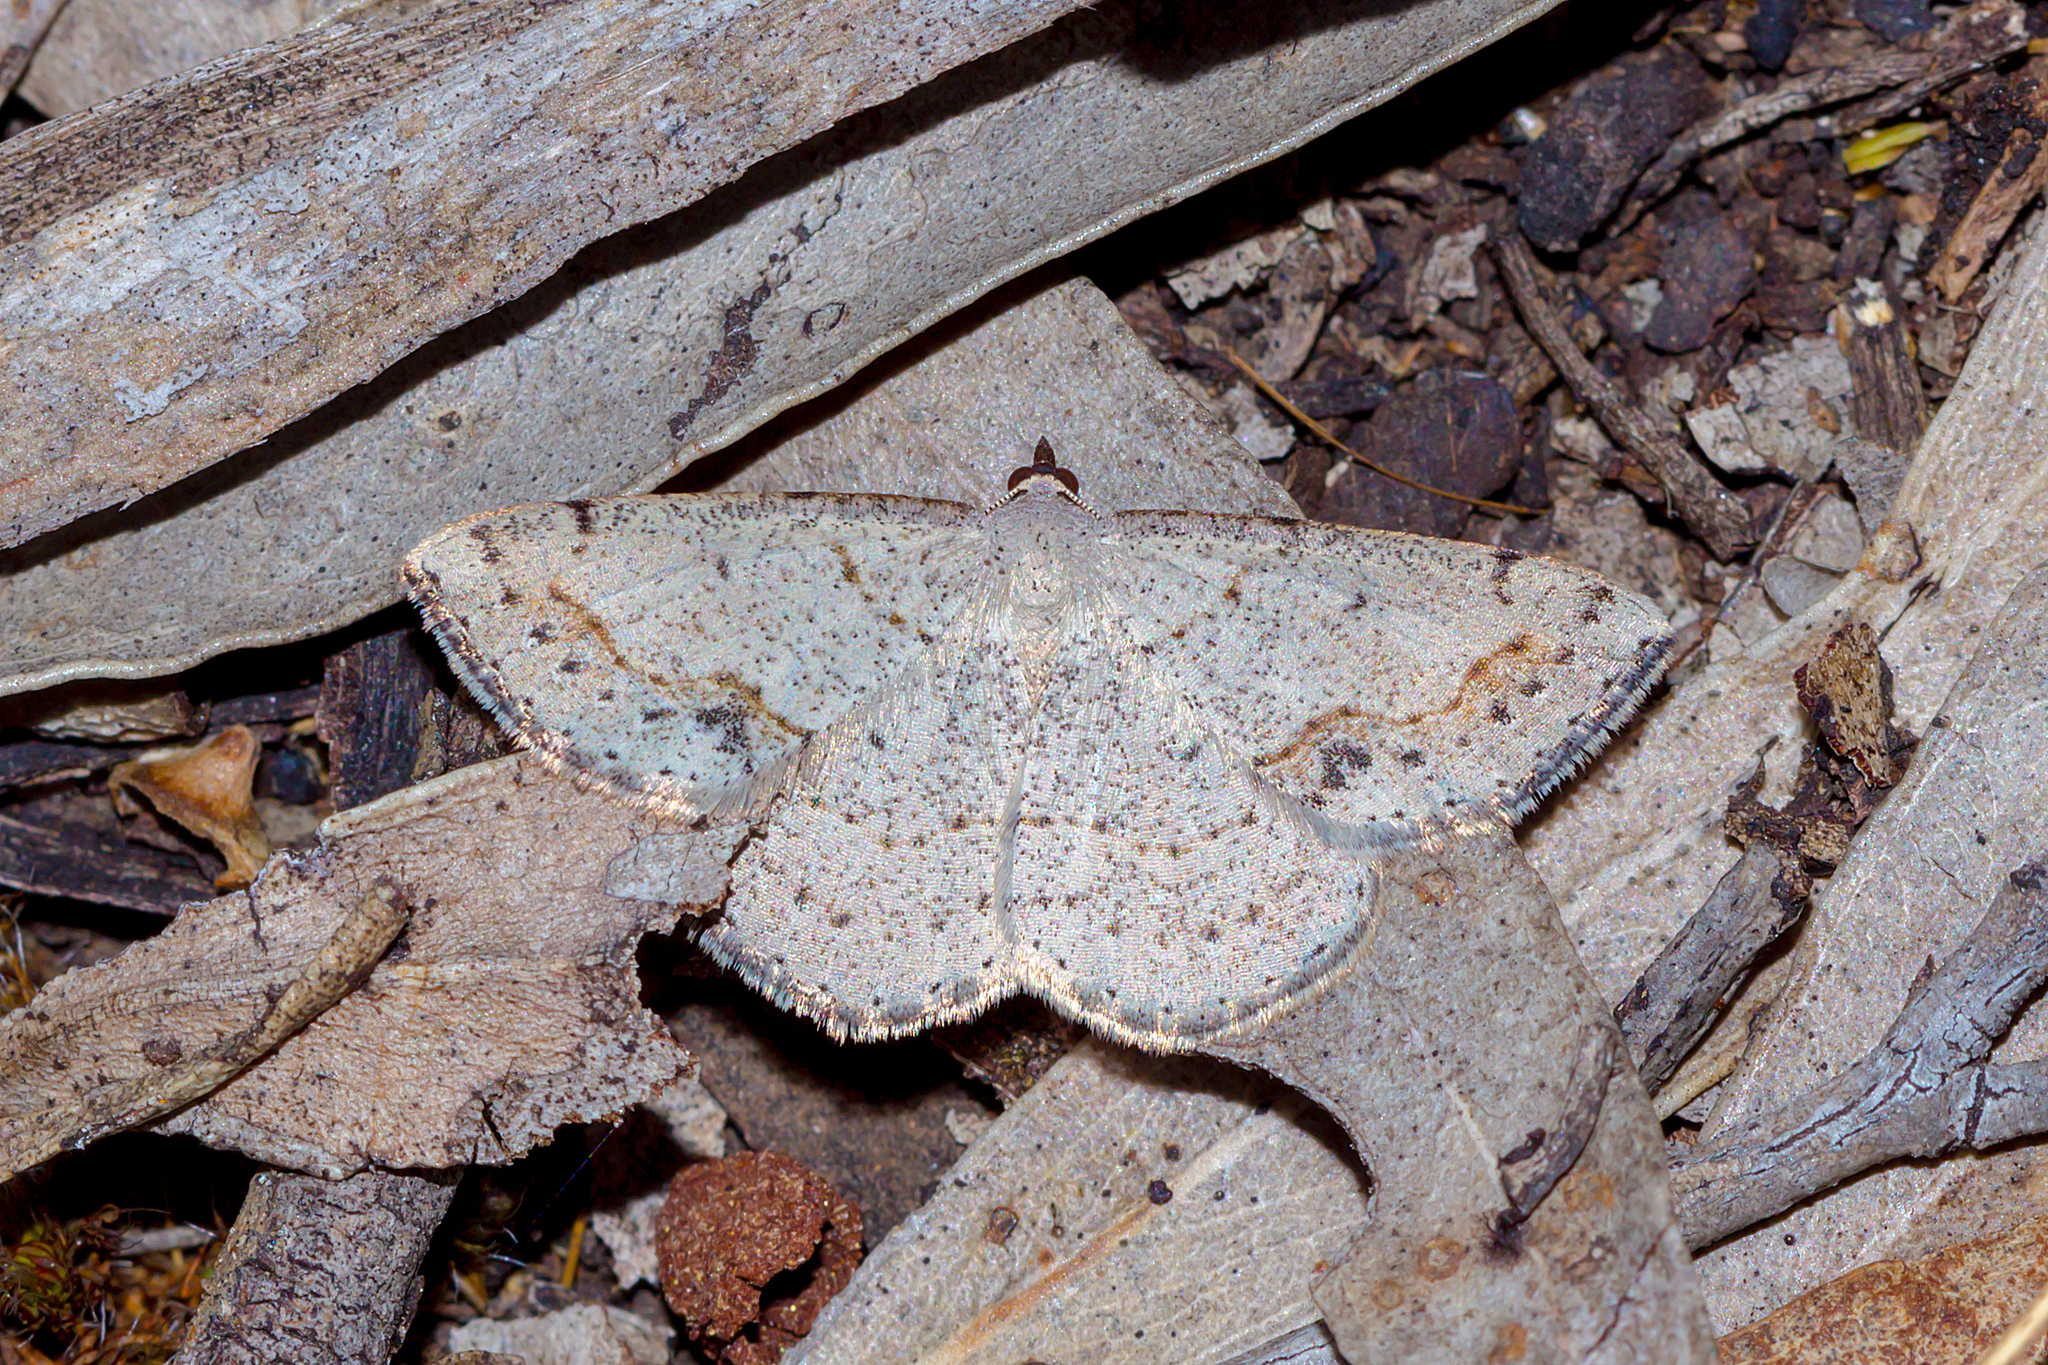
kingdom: Animalia
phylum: Arthropoda
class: Insecta
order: Lepidoptera
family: Geometridae
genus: Taxeotis
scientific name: Taxeotis intextata
